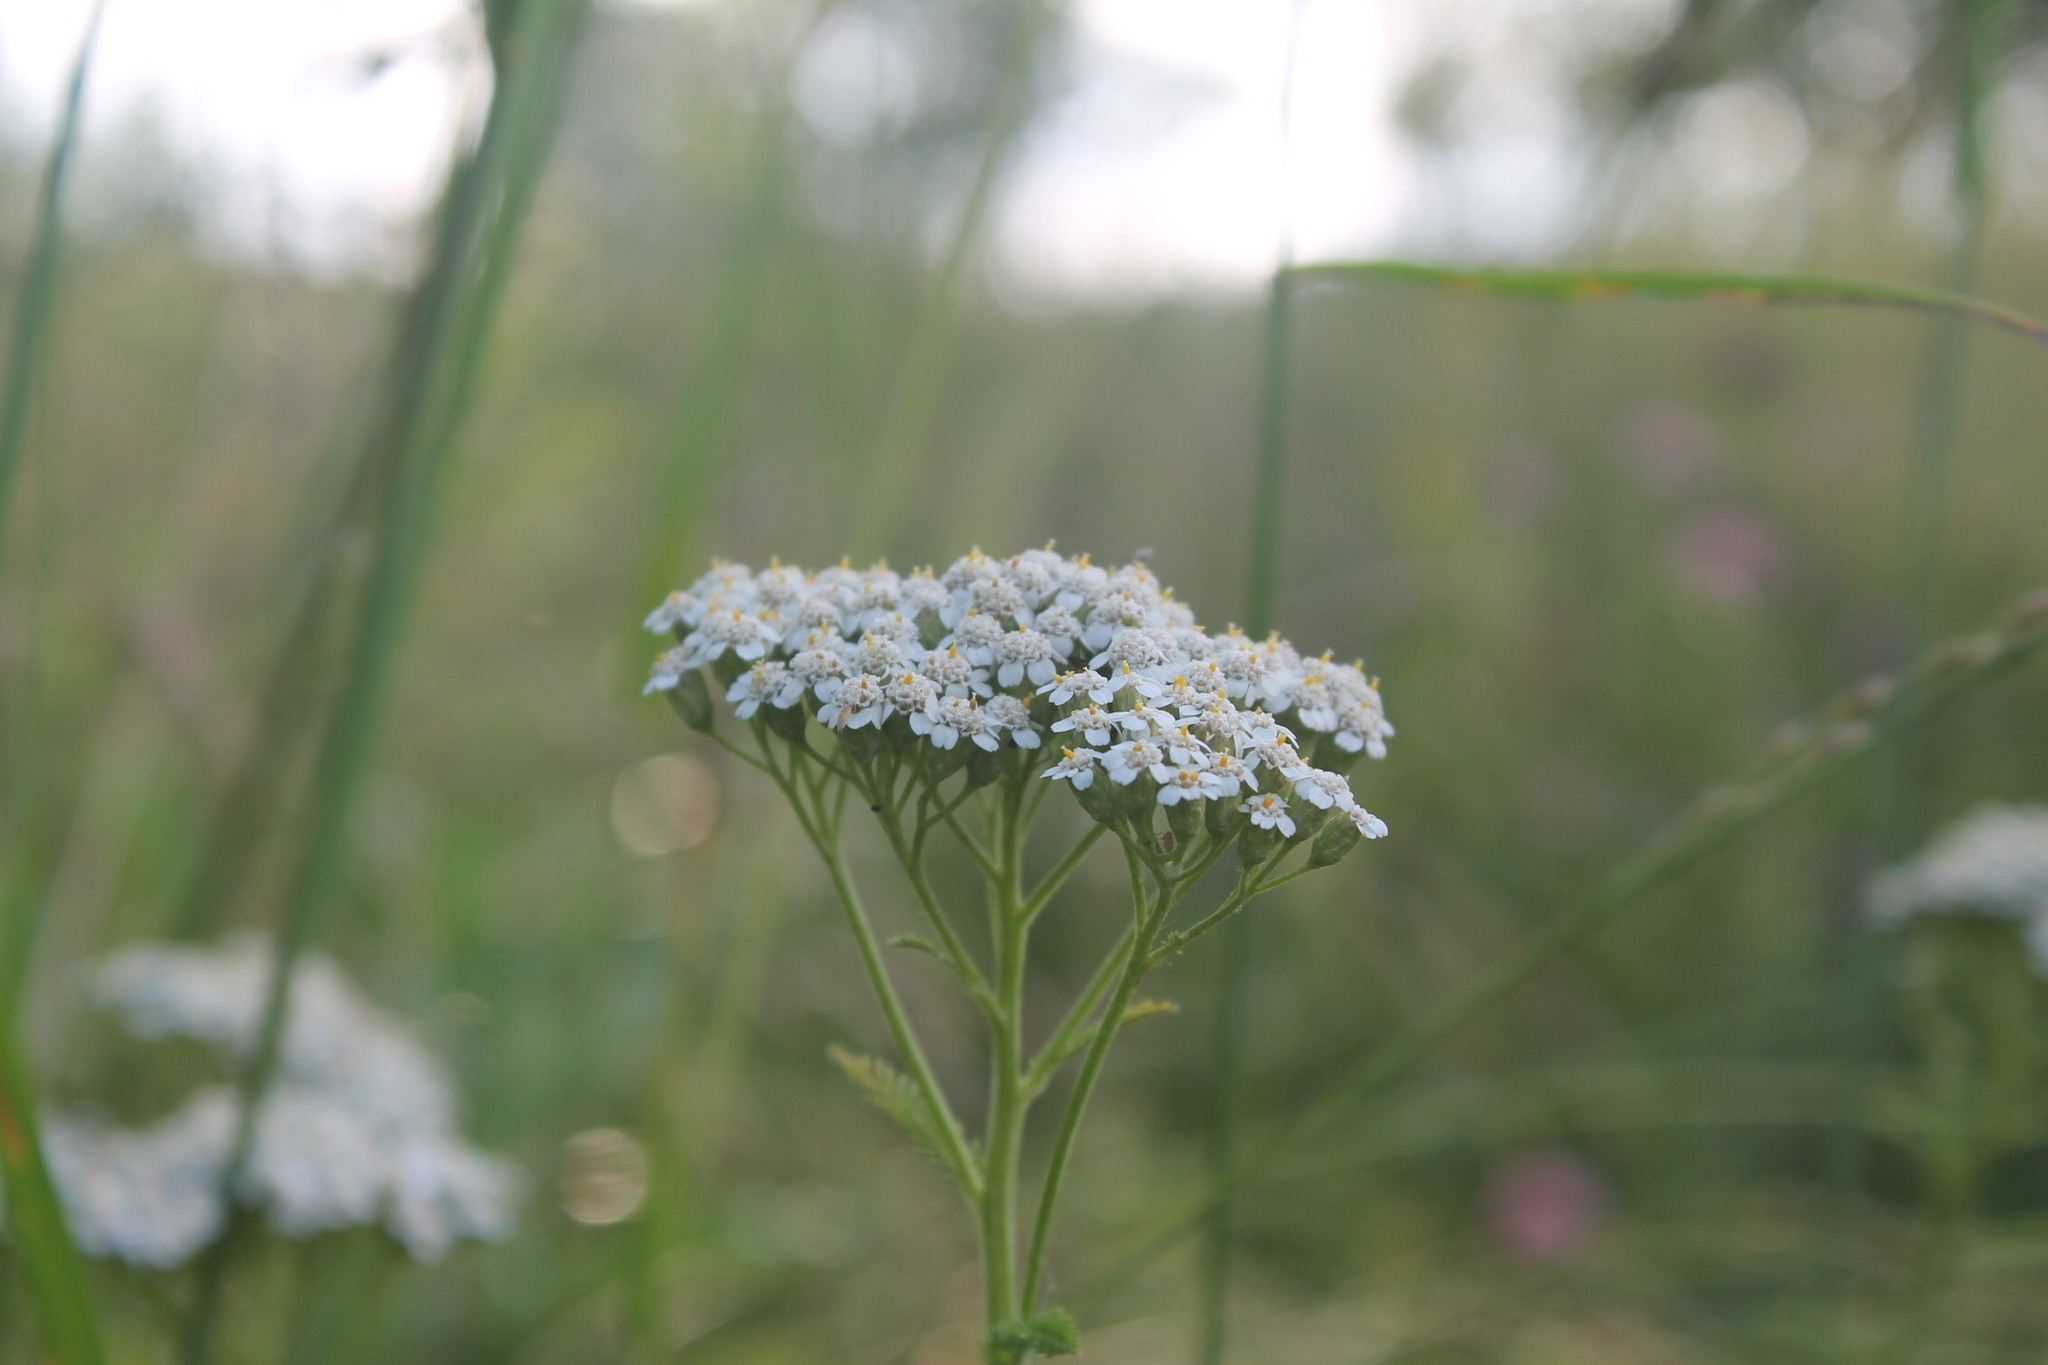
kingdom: Plantae
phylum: Tracheophyta
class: Magnoliopsida
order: Asterales
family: Asteraceae
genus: Achillea
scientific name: Achillea millefolium
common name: Yarrow
